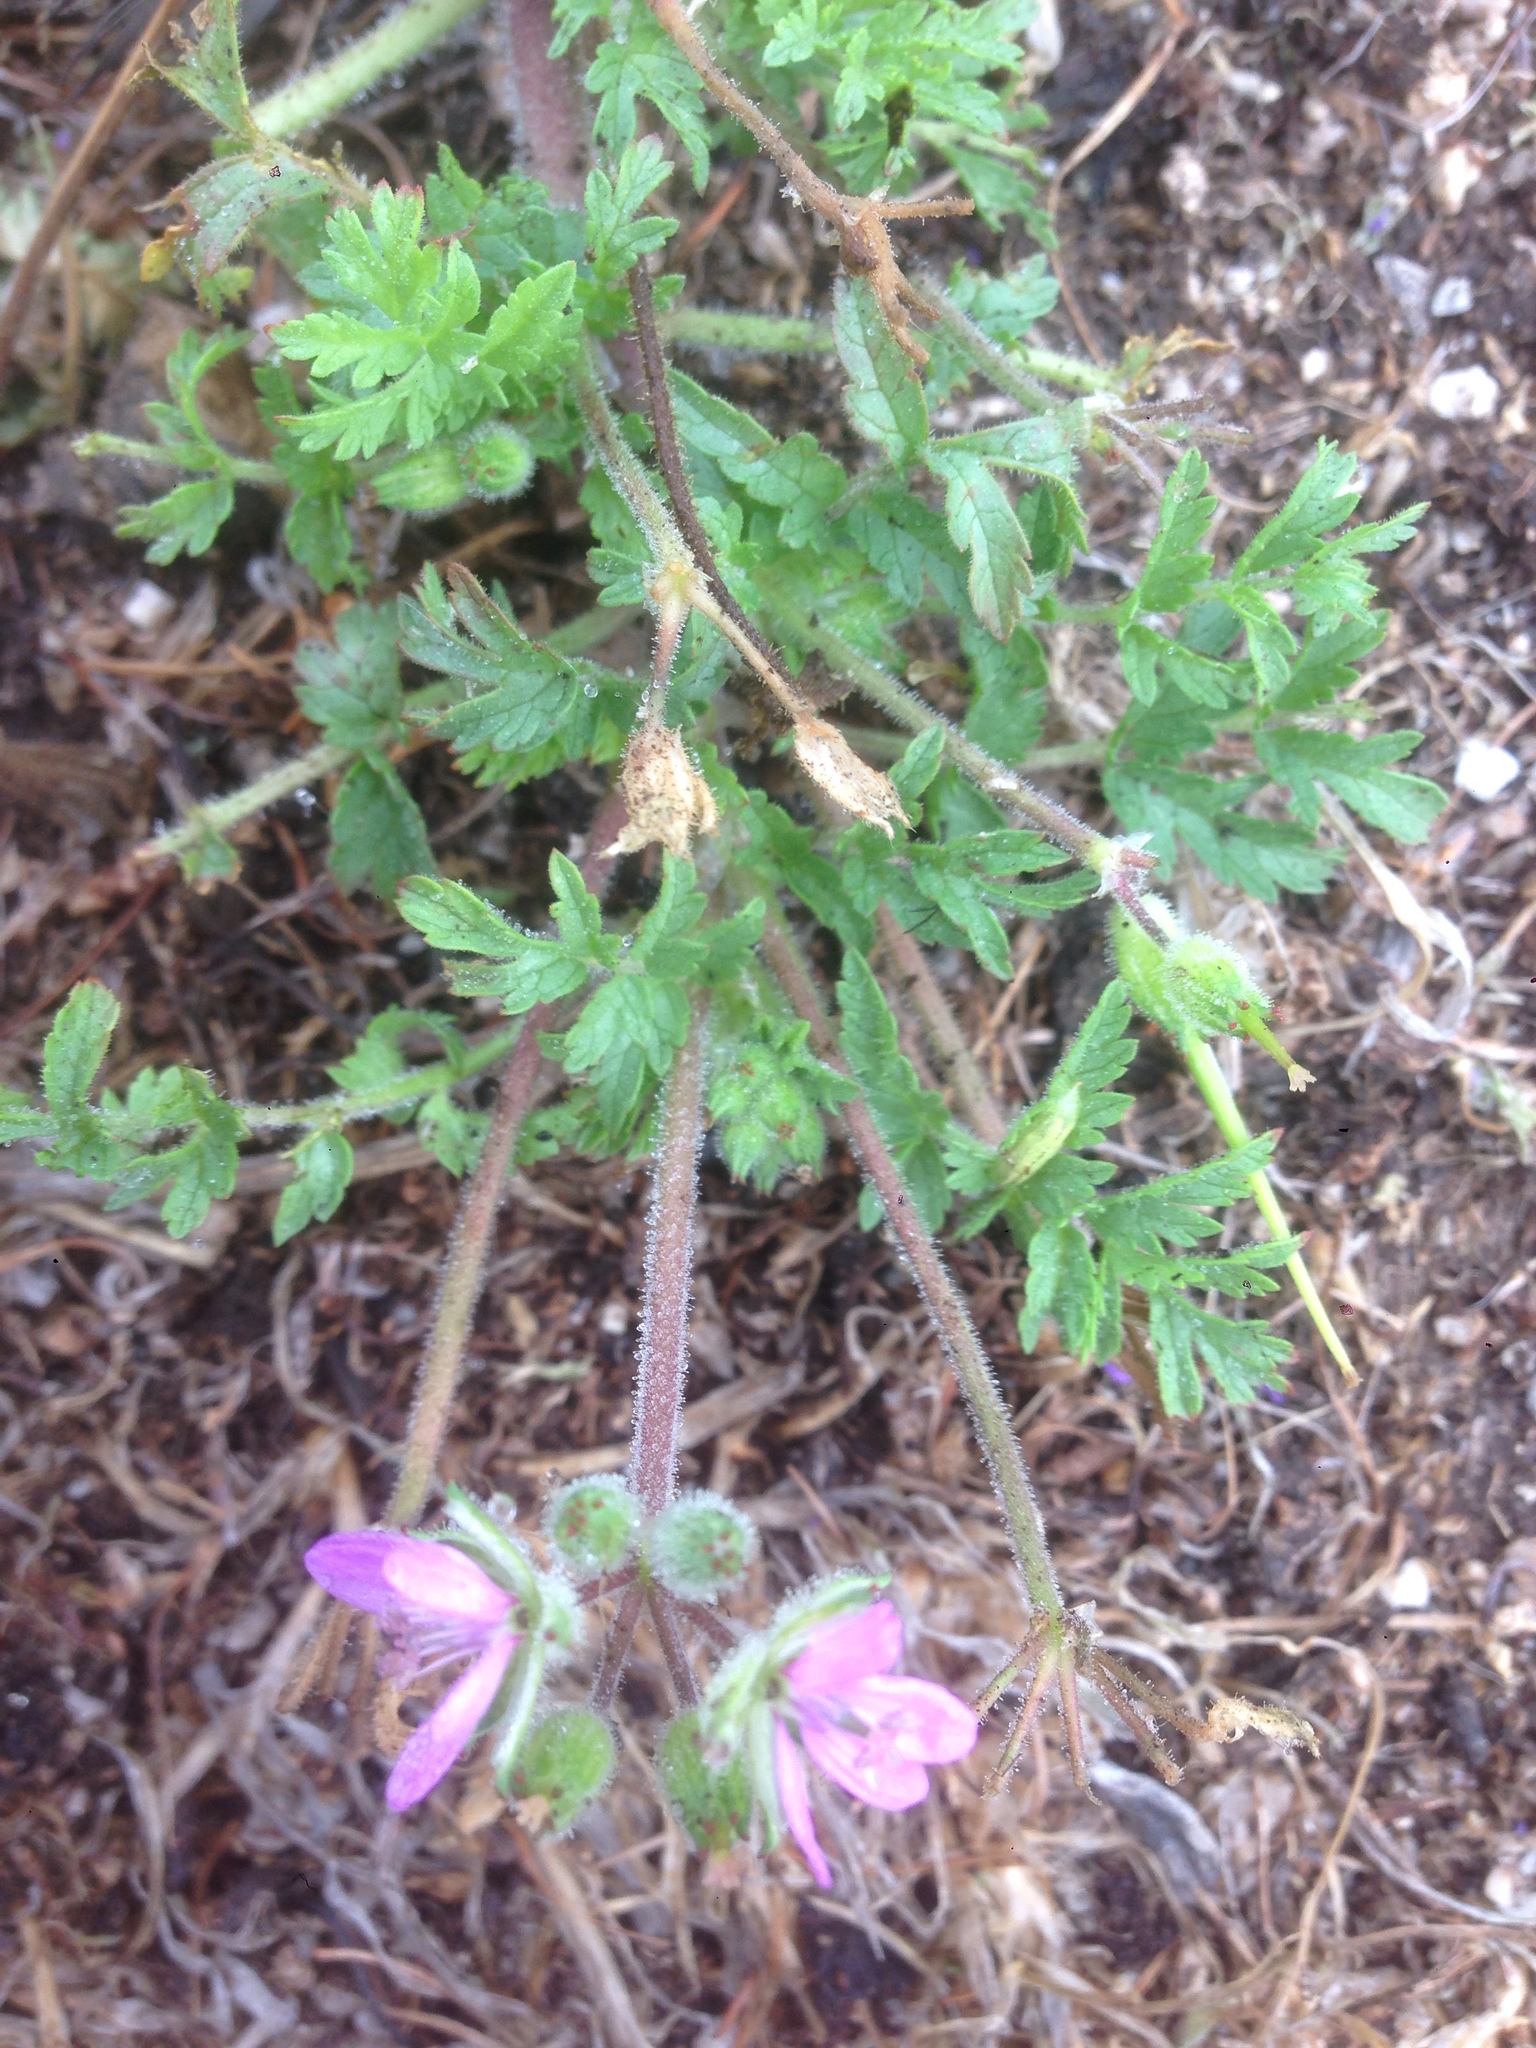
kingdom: Plantae
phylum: Tracheophyta
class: Magnoliopsida
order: Geraniales
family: Geraniaceae
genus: Erodium
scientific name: Erodium cicutarium
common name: Common stork's-bill
